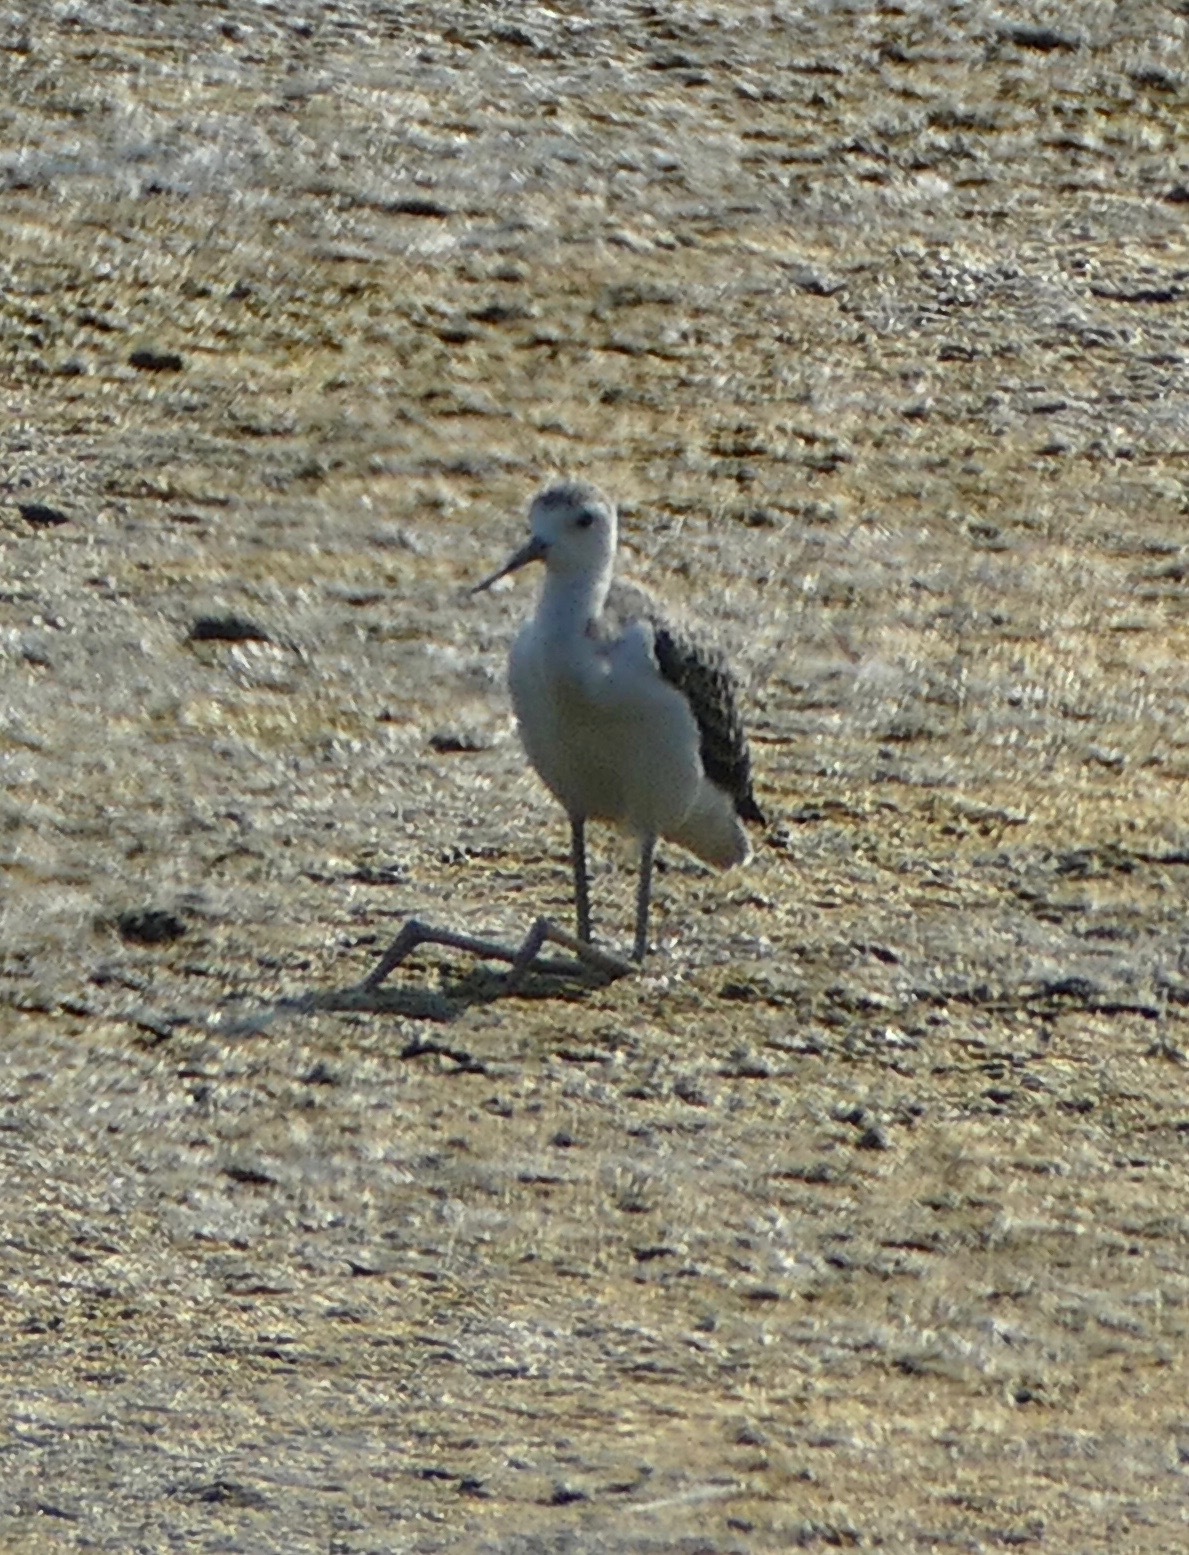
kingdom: Animalia
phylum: Chordata
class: Aves
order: Charadriiformes
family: Recurvirostridae
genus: Himantopus
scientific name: Himantopus himantopus
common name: Black-winged stilt
